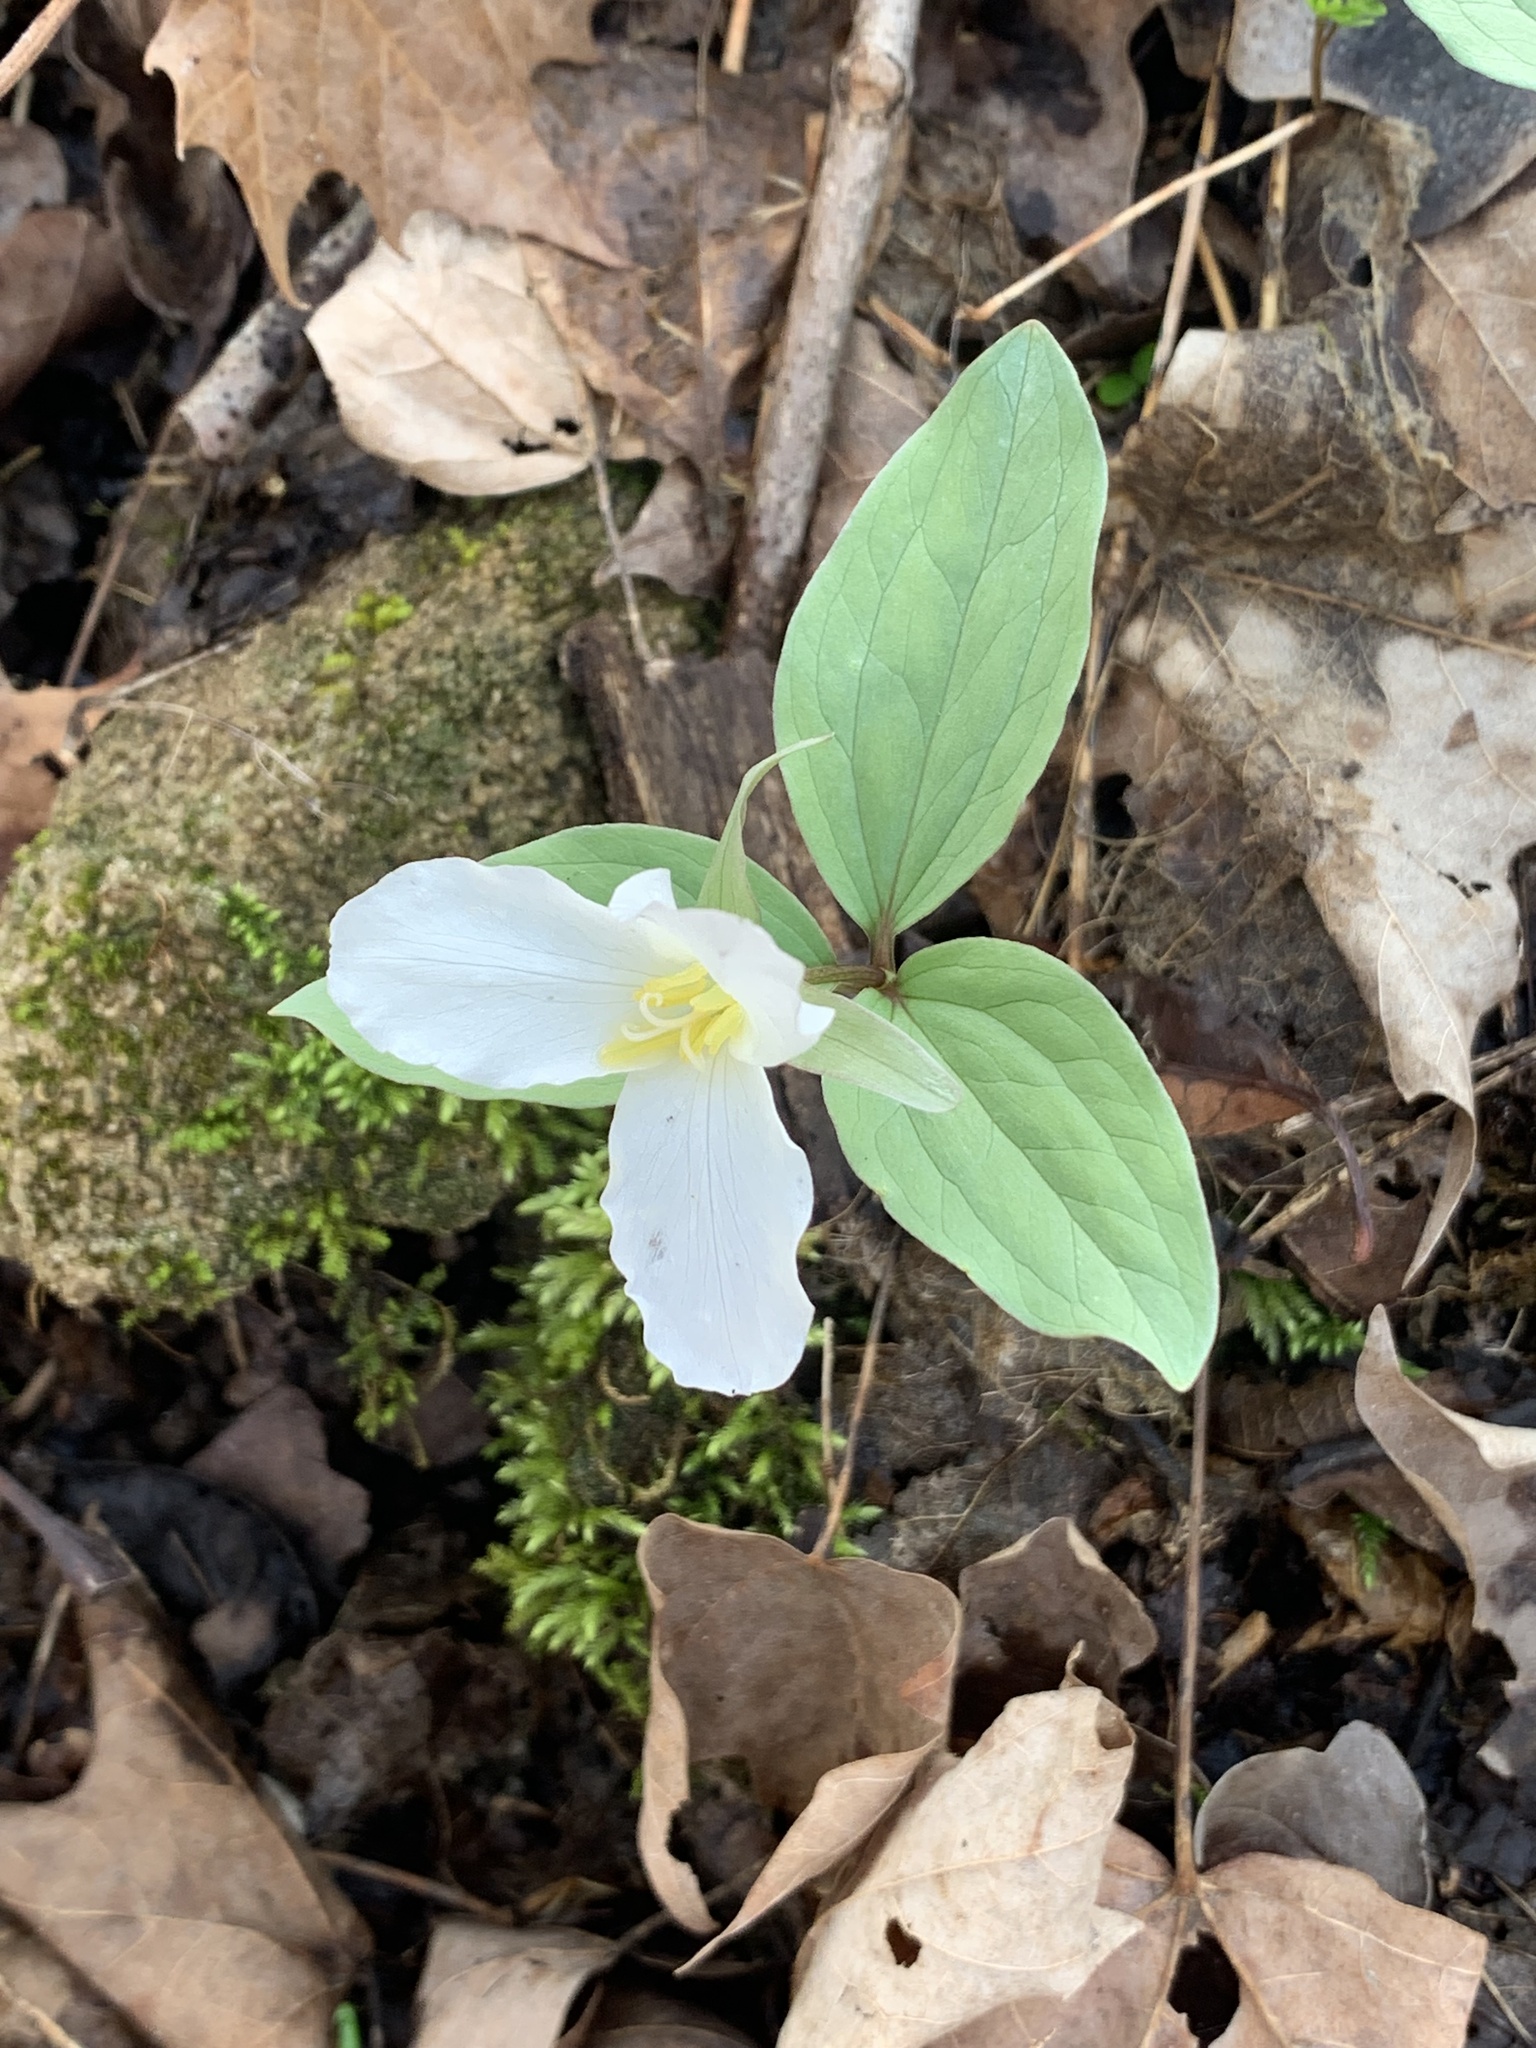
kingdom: Plantae
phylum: Tracheophyta
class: Liliopsida
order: Liliales
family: Melanthiaceae
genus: Trillium
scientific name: Trillium nivale
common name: Dwarf white trillium
